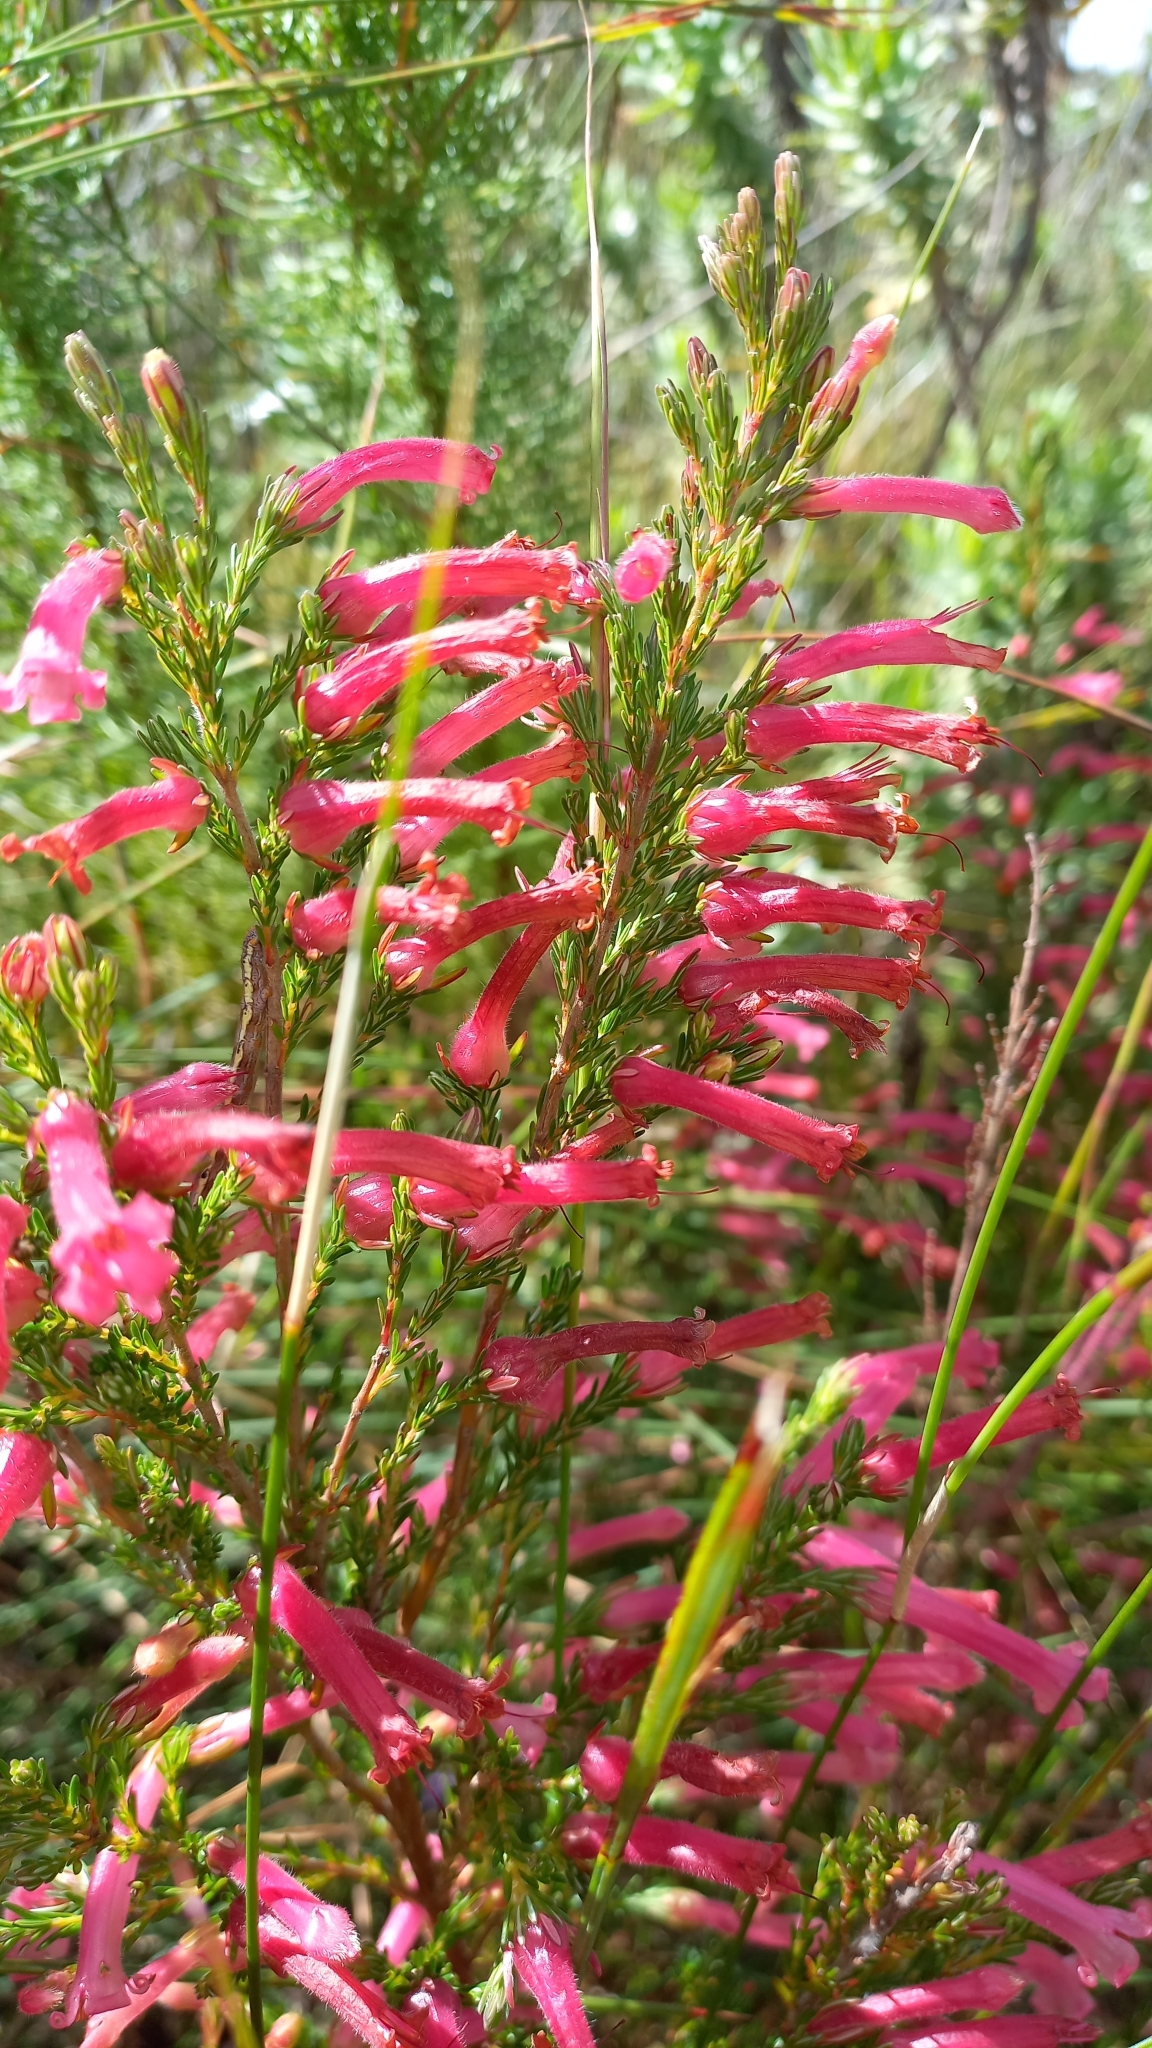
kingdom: Plantae
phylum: Tracheophyta
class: Magnoliopsida
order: Ericales
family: Ericaceae
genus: Erica
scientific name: Erica curviflora
